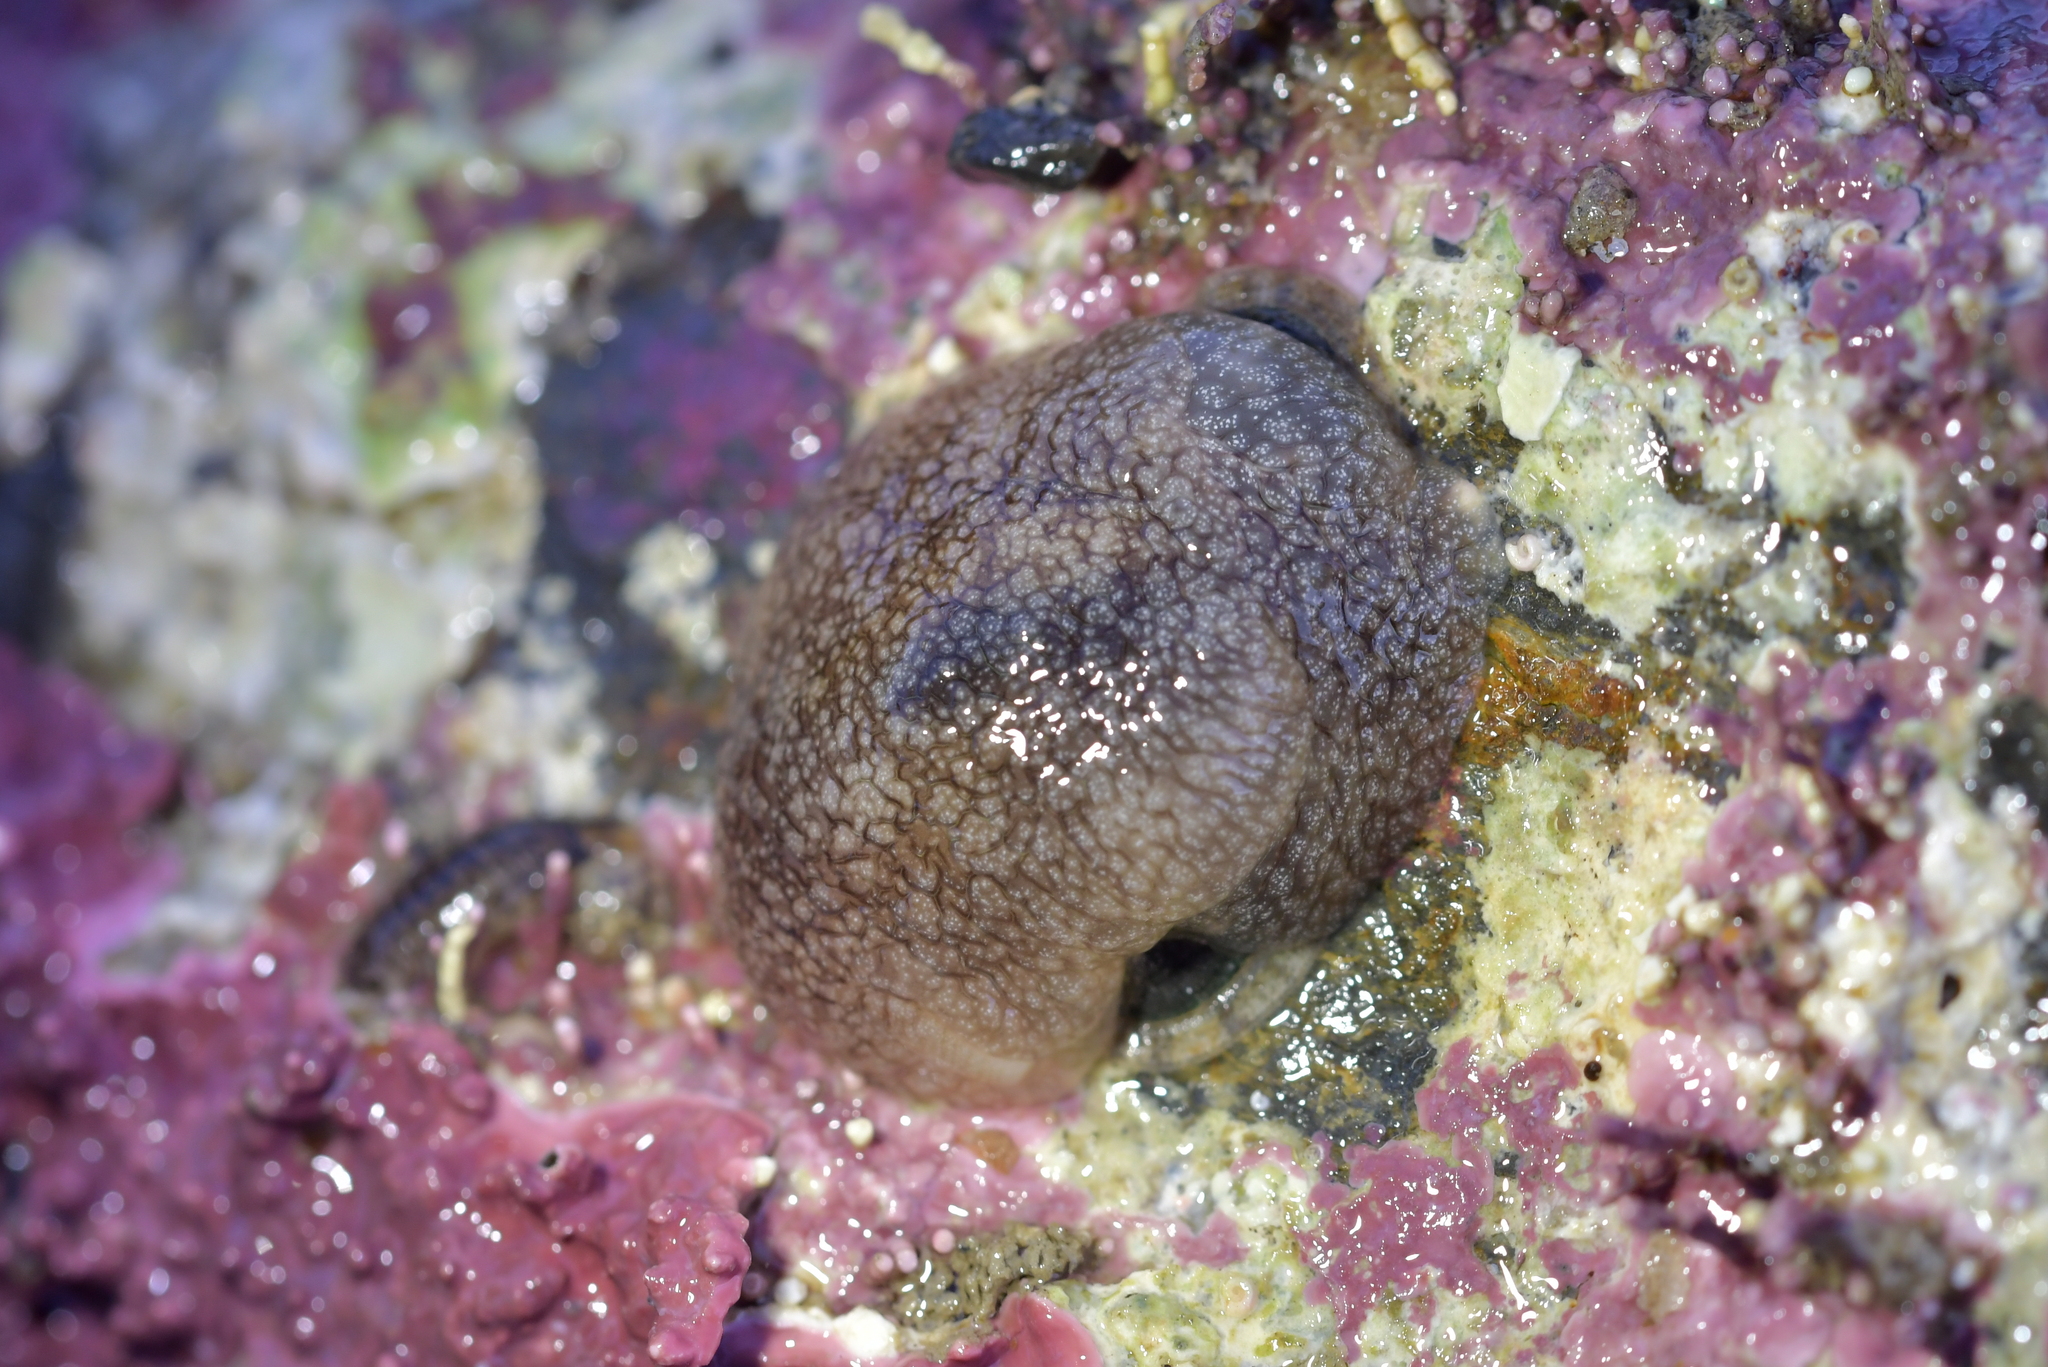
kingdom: Animalia
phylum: Mollusca
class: Gastropoda
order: Pleurobranchida
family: Pleurobranchaeidae
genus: Pleurobranchaea
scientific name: Pleurobranchaea maculata
